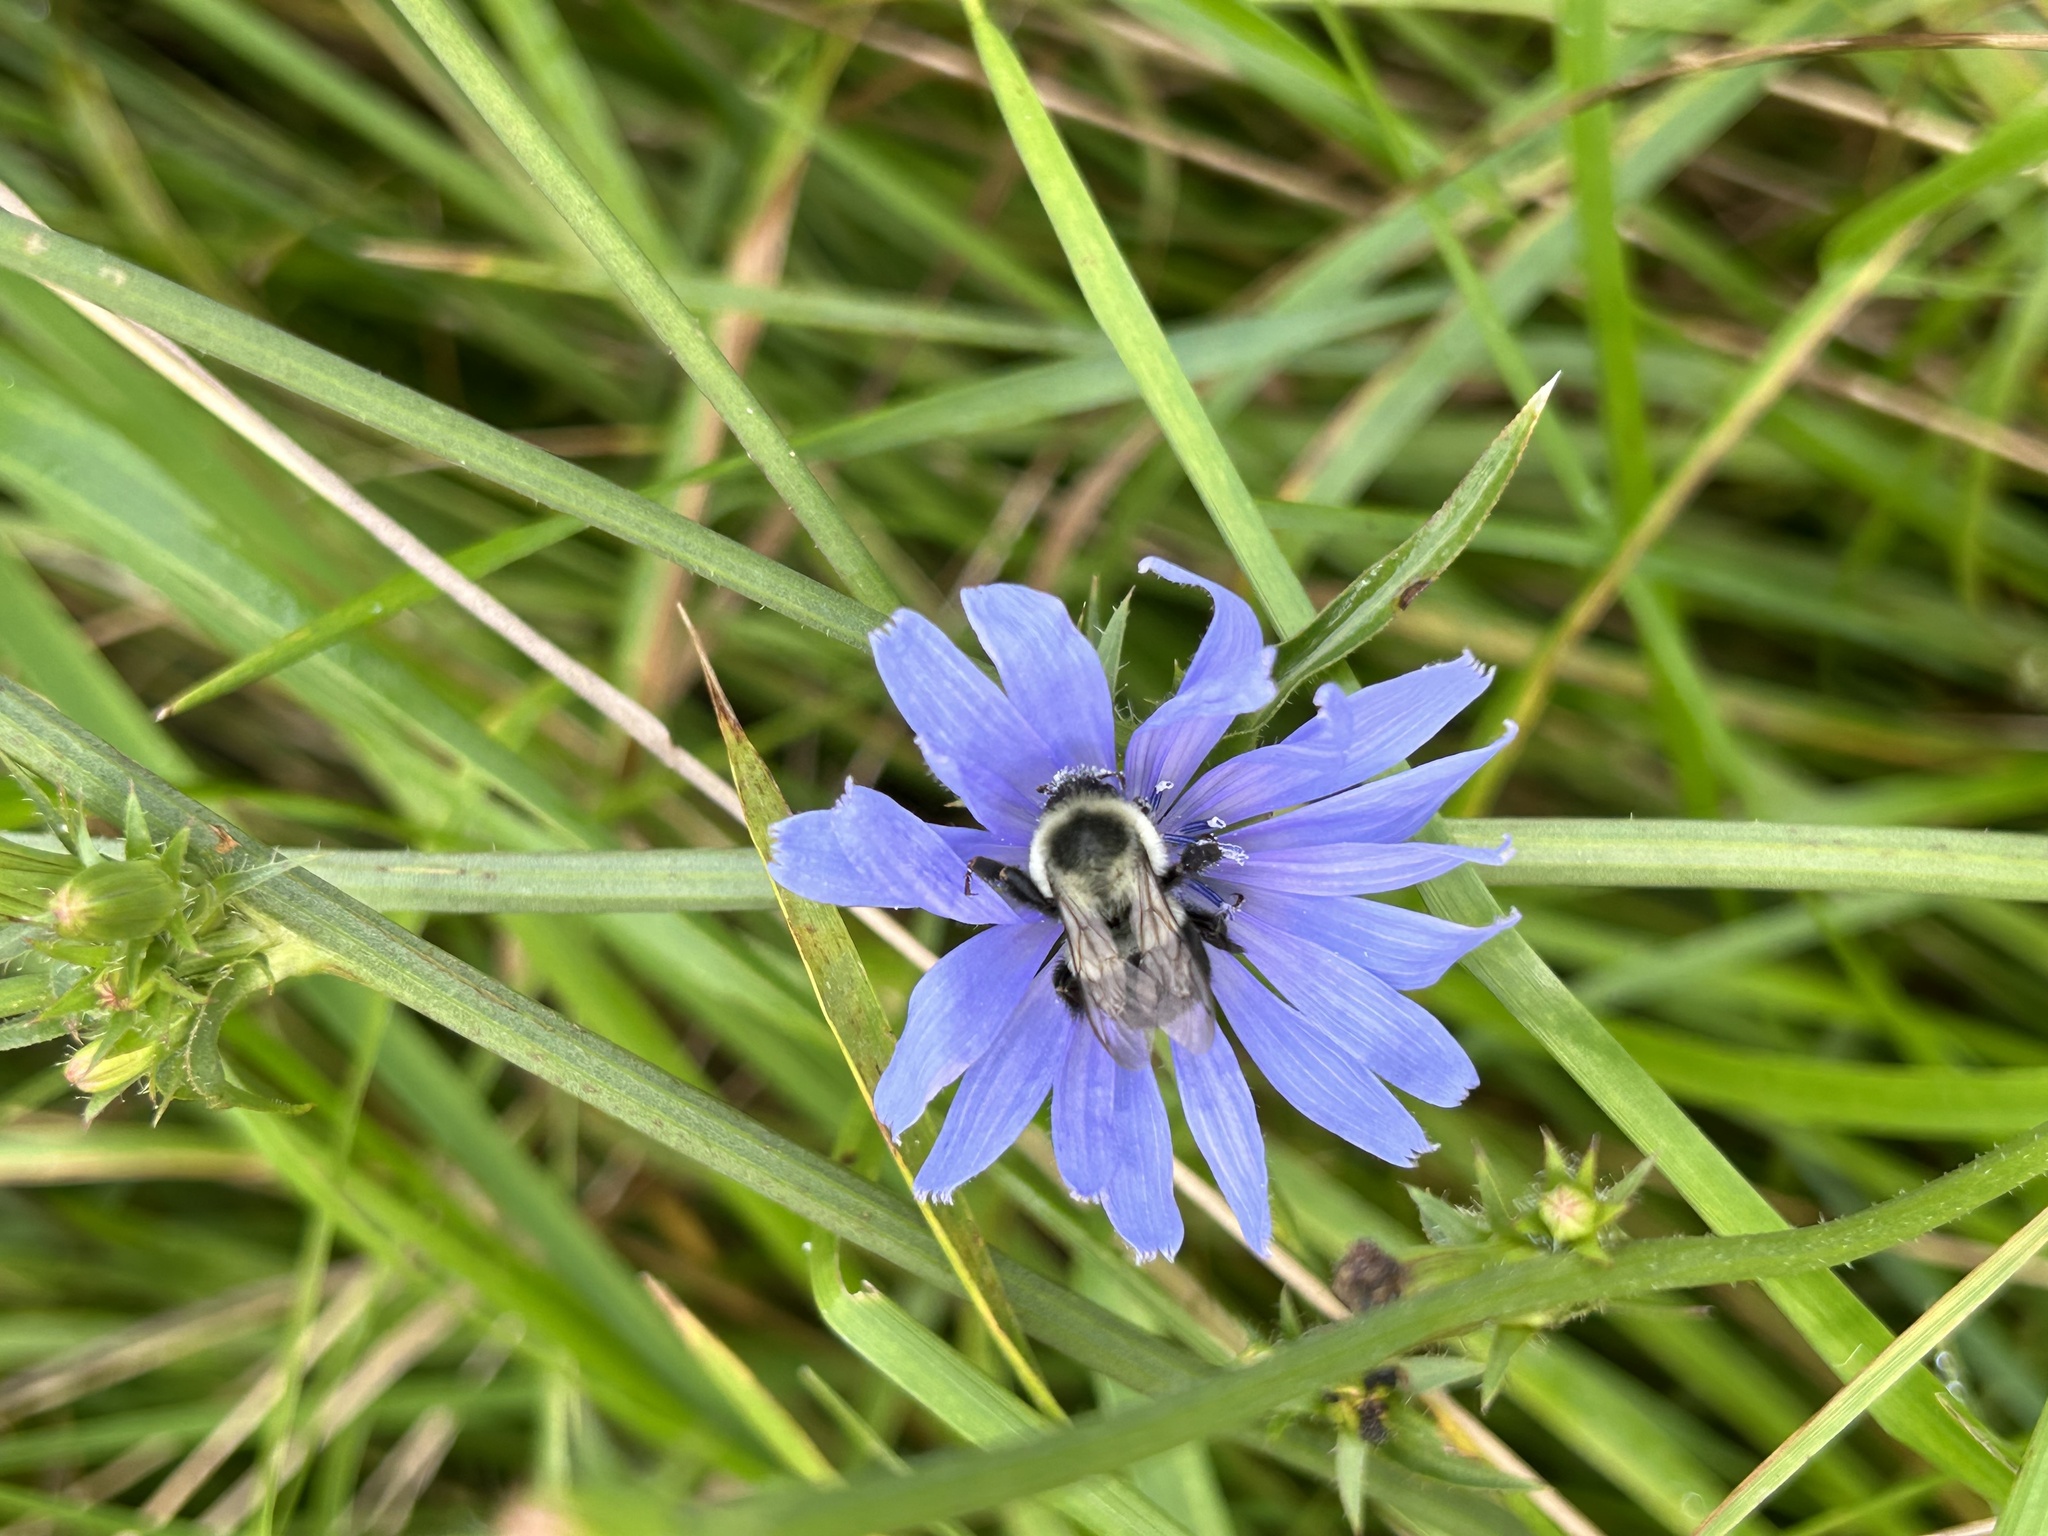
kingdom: Animalia
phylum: Arthropoda
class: Insecta
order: Hymenoptera
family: Apidae
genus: Bombus
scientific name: Bombus impatiens
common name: Common eastern bumble bee
